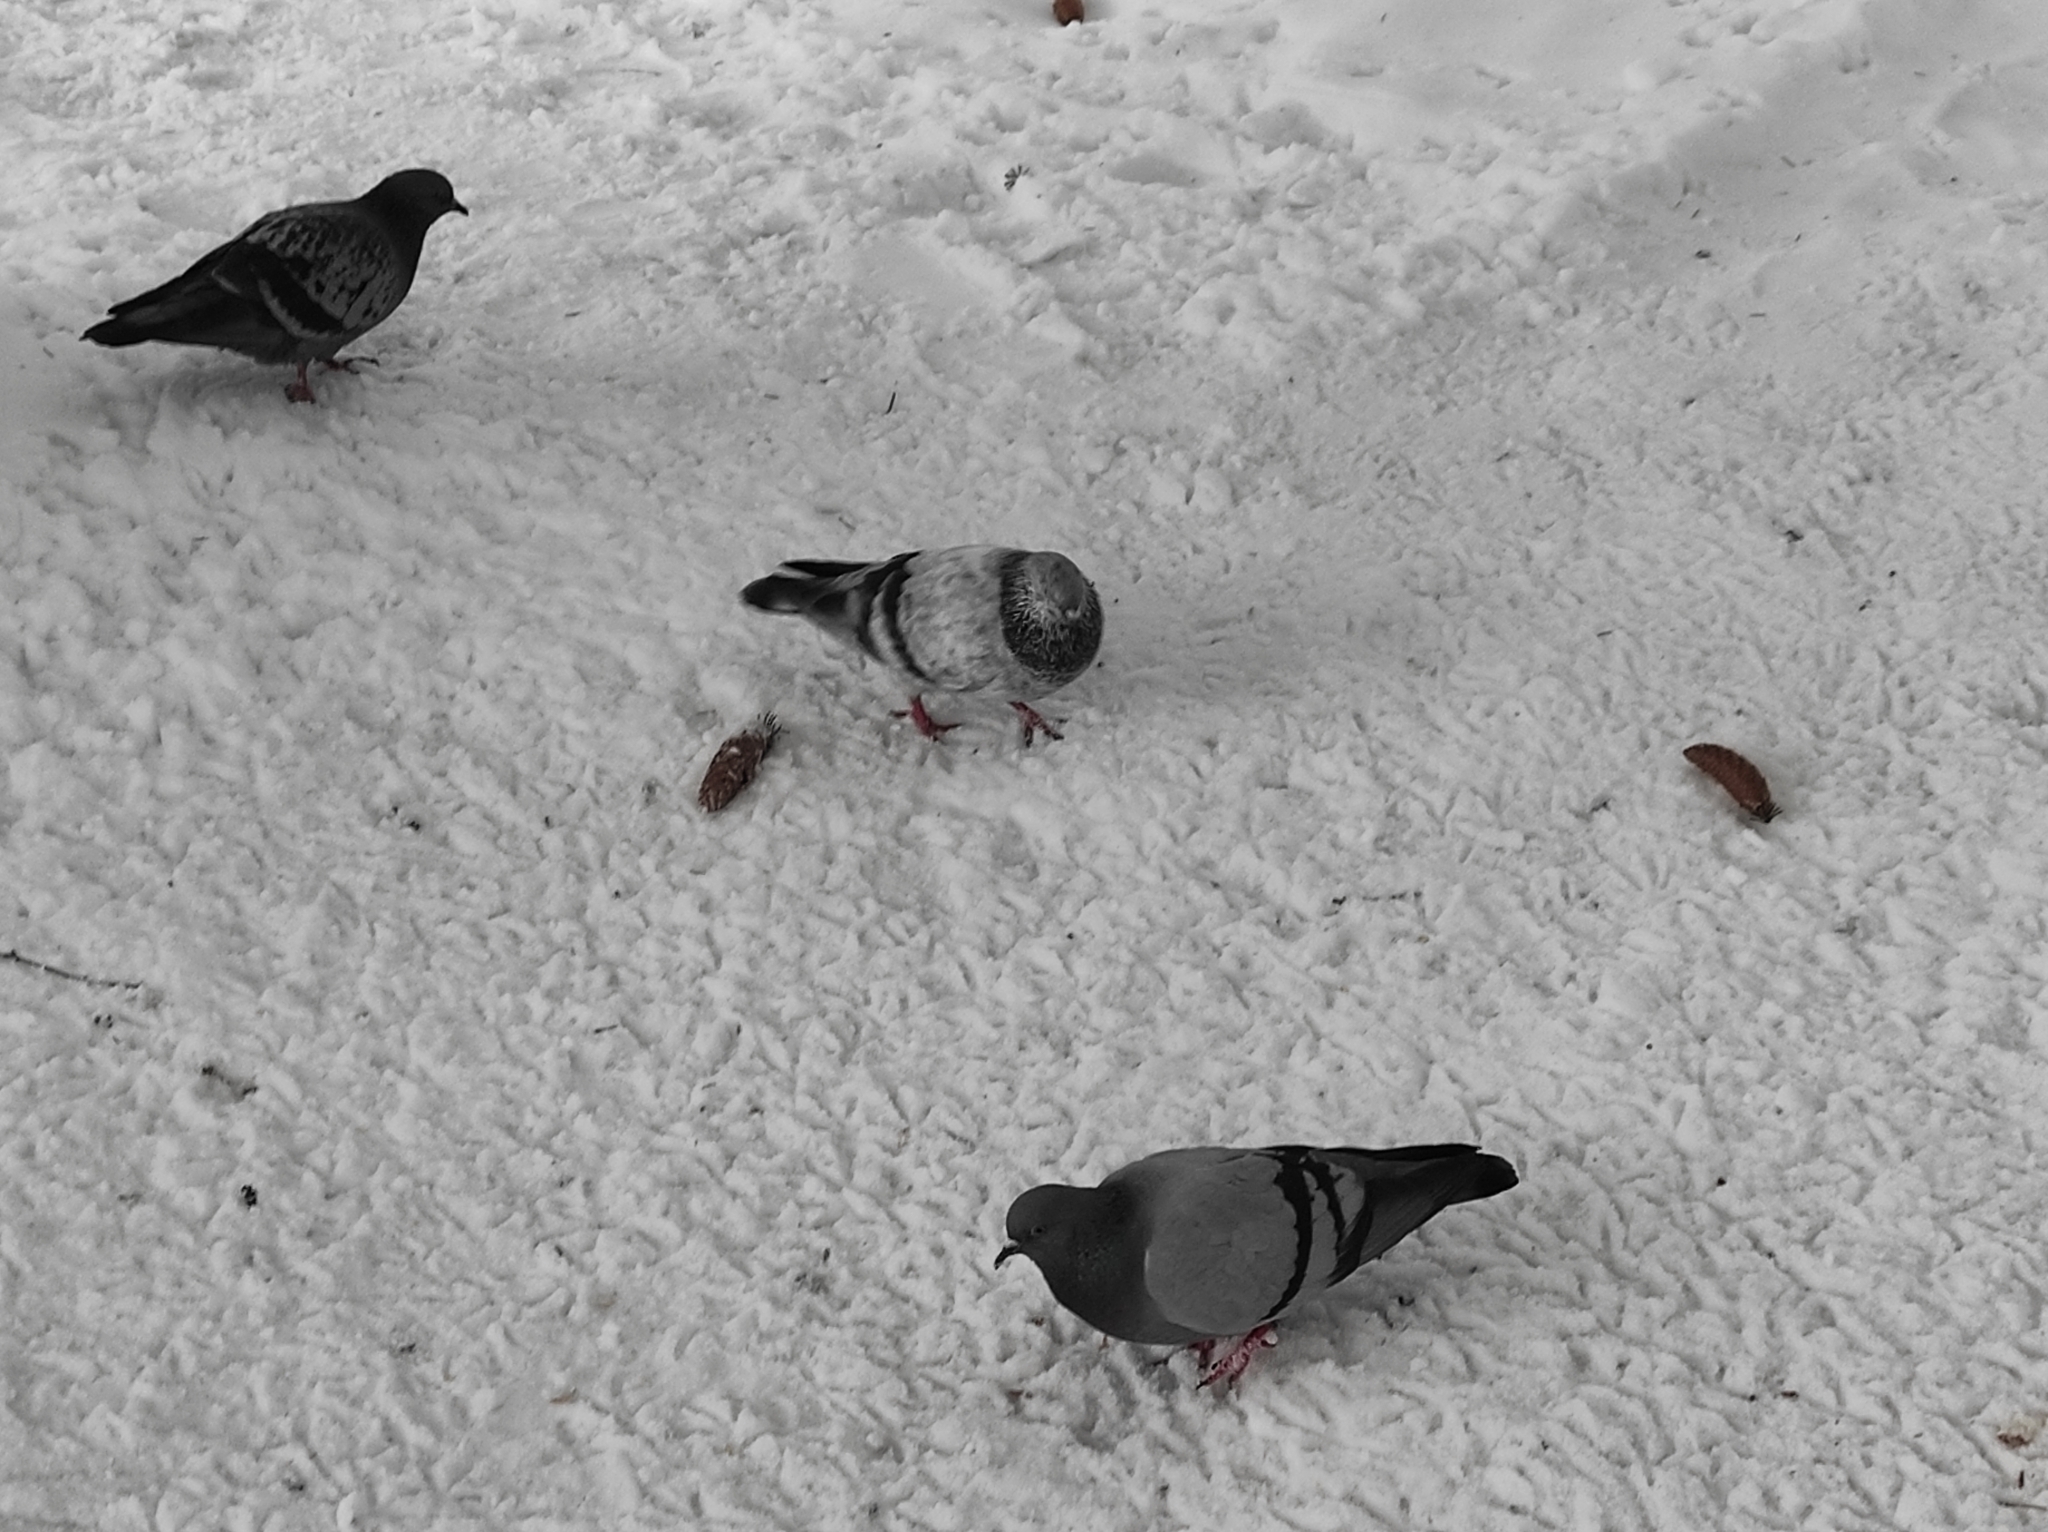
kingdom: Animalia
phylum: Chordata
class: Aves
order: Columbiformes
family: Columbidae
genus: Columba
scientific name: Columba livia
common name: Rock pigeon
